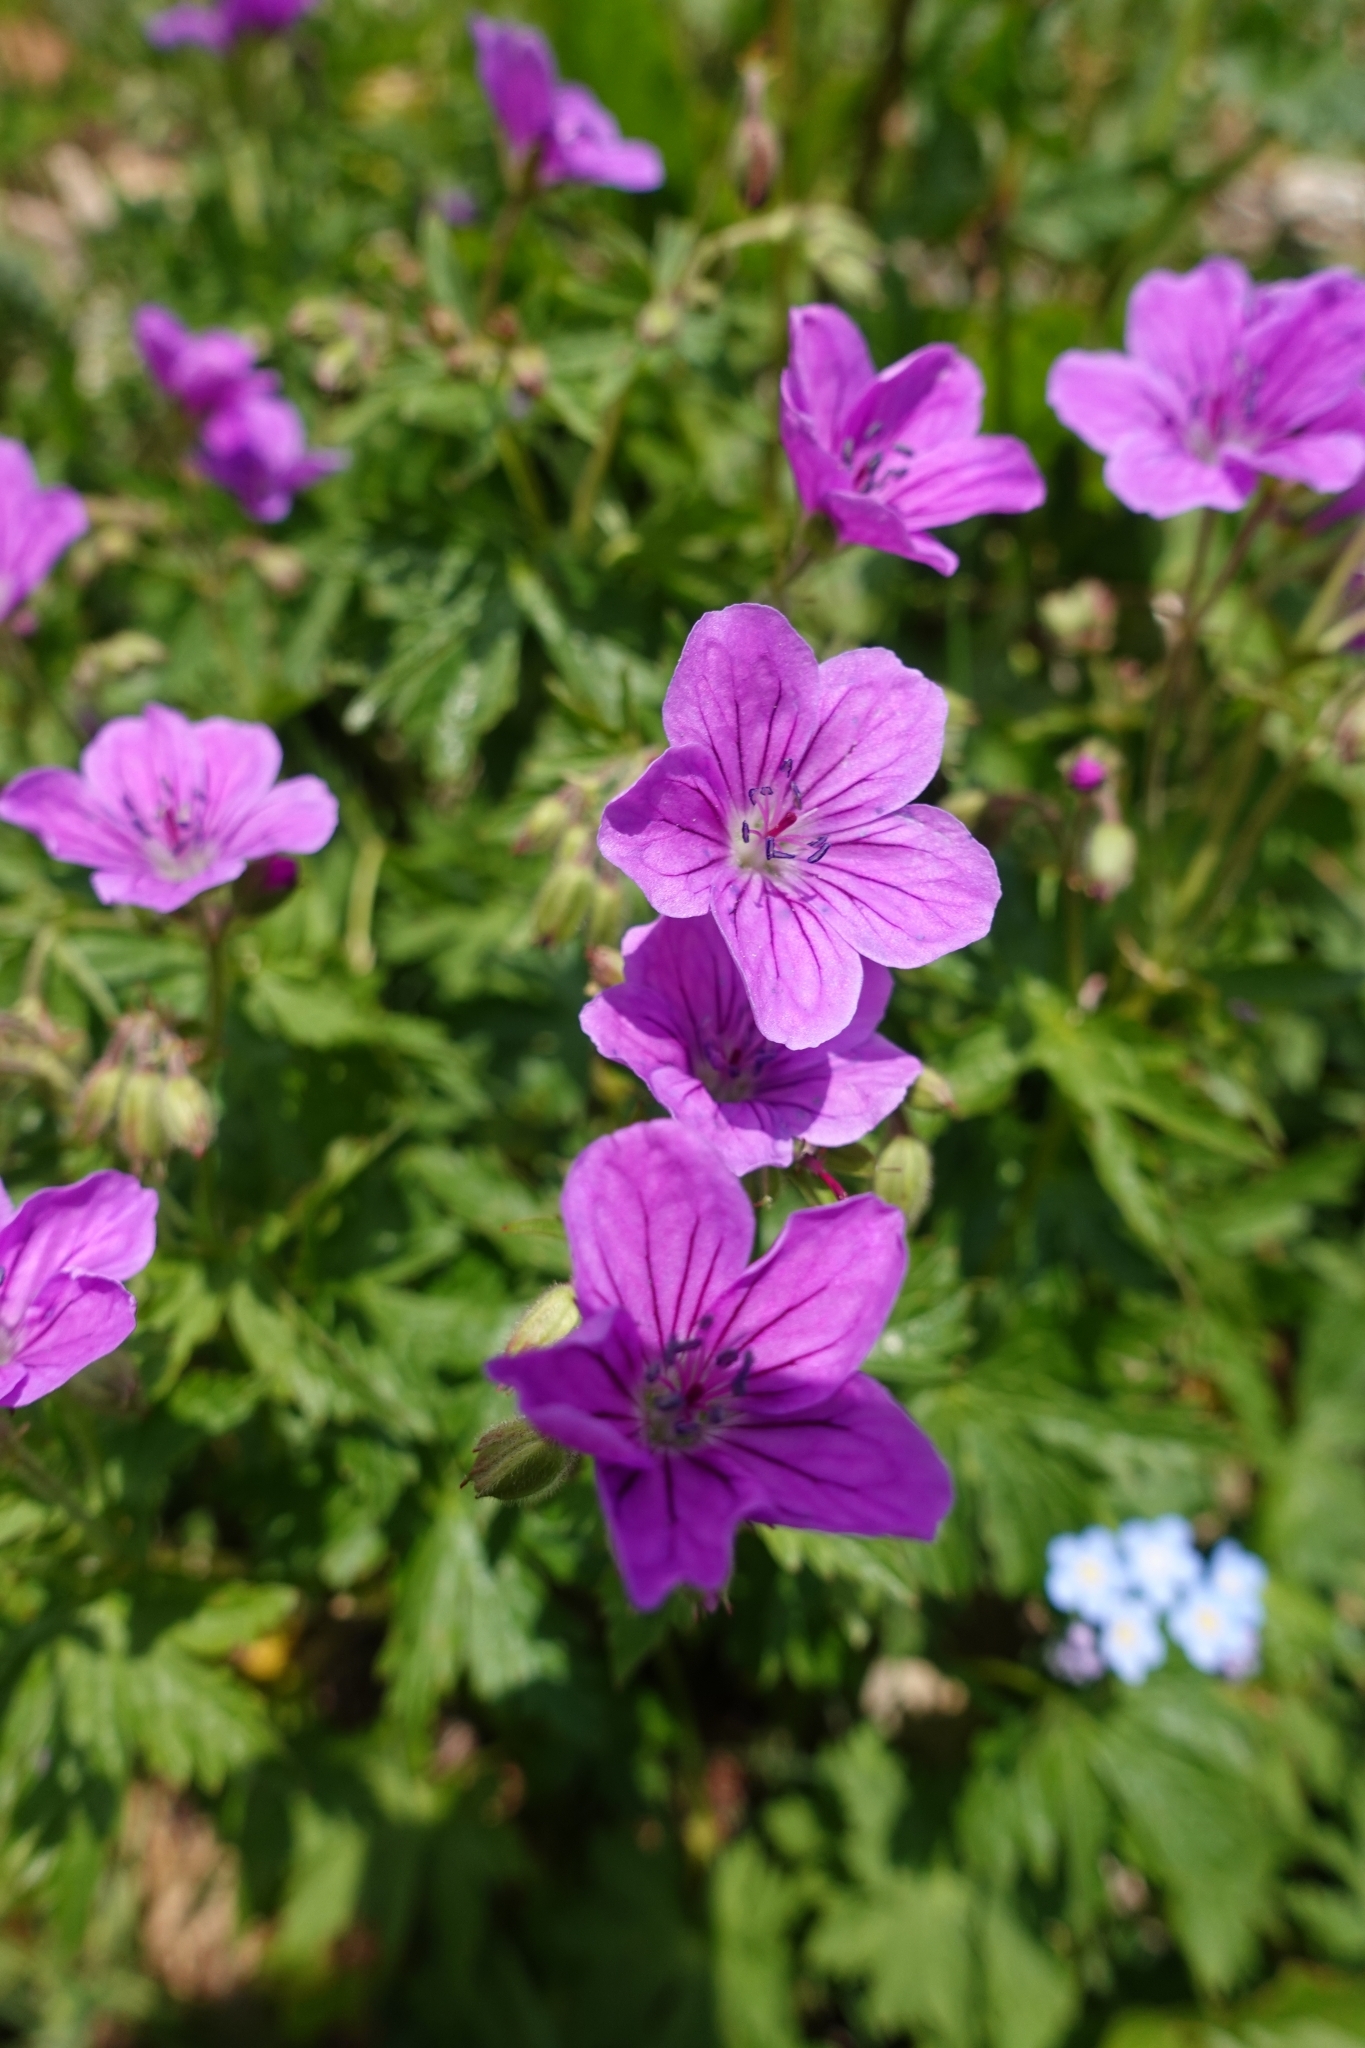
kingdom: Plantae
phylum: Tracheophyta
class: Magnoliopsida
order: Geraniales
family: Geraniaceae
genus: Geranium
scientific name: Geranium sylvaticum
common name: Wood crane's-bill
